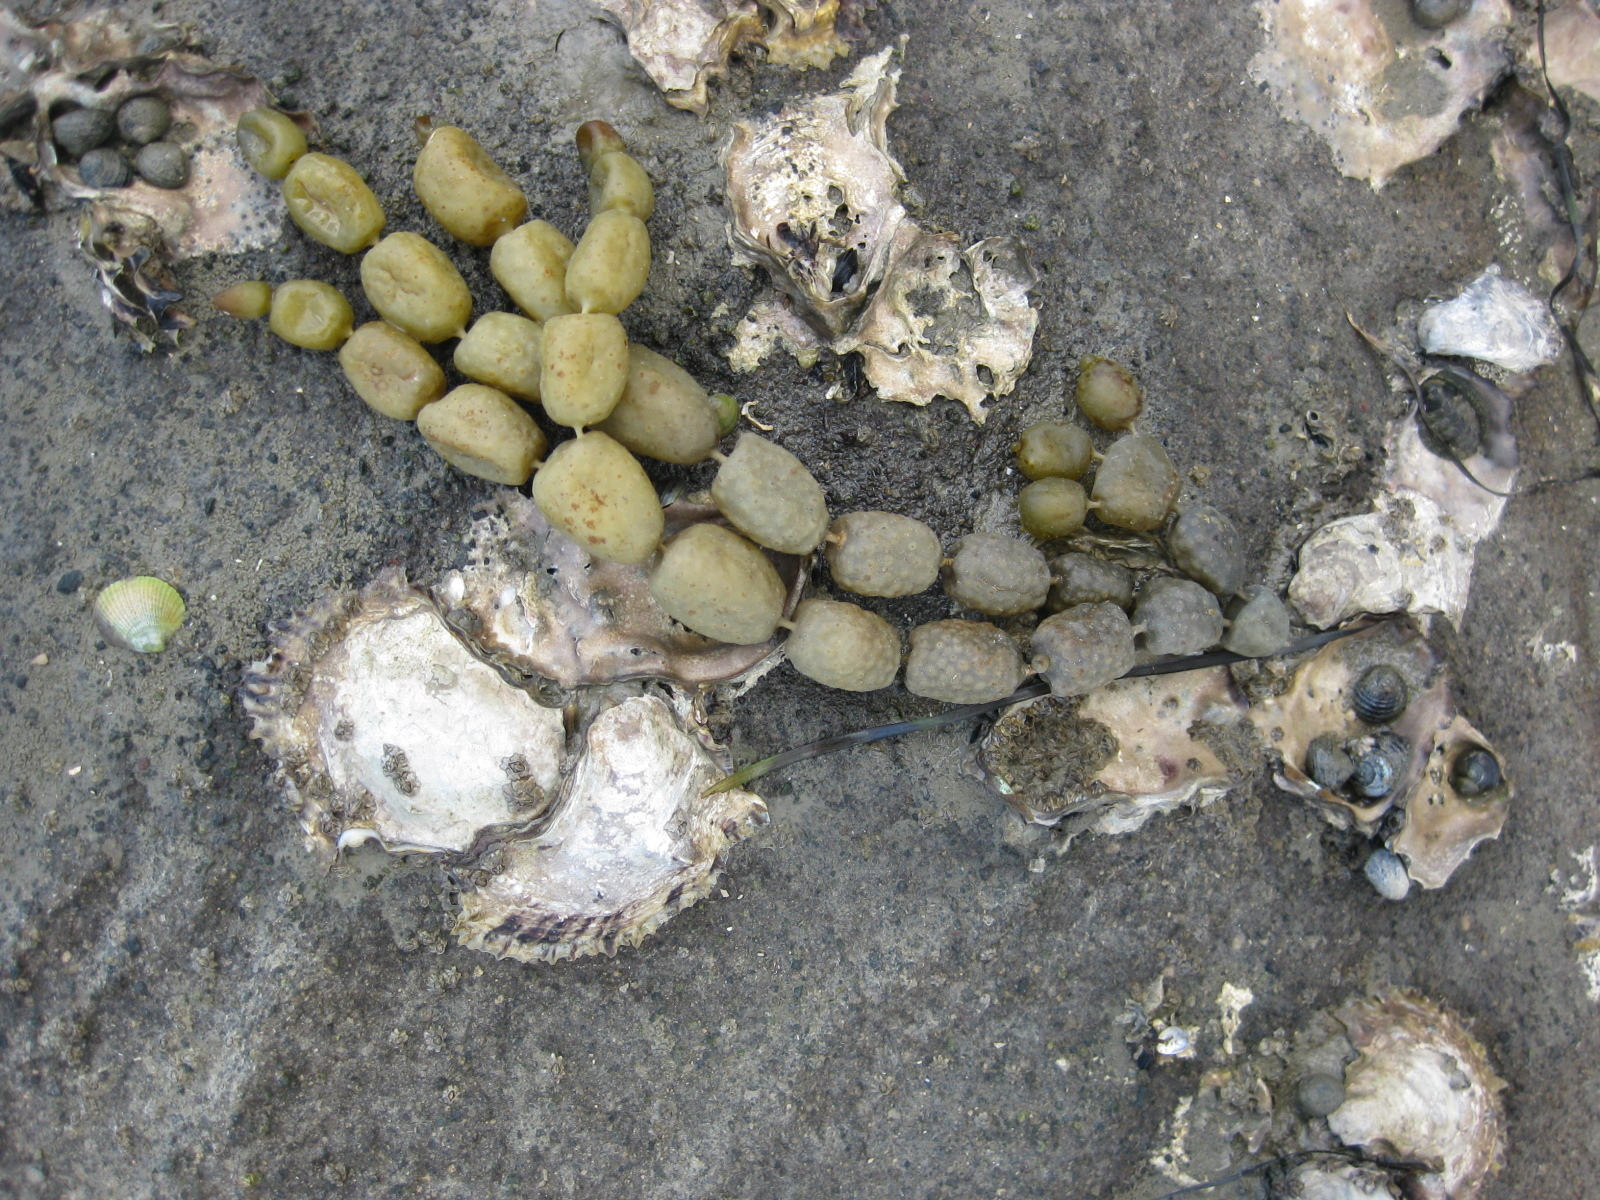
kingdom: Chromista
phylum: Ochrophyta
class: Phaeophyceae
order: Fucales
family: Hormosiraceae
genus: Hormosira
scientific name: Hormosira banksii
